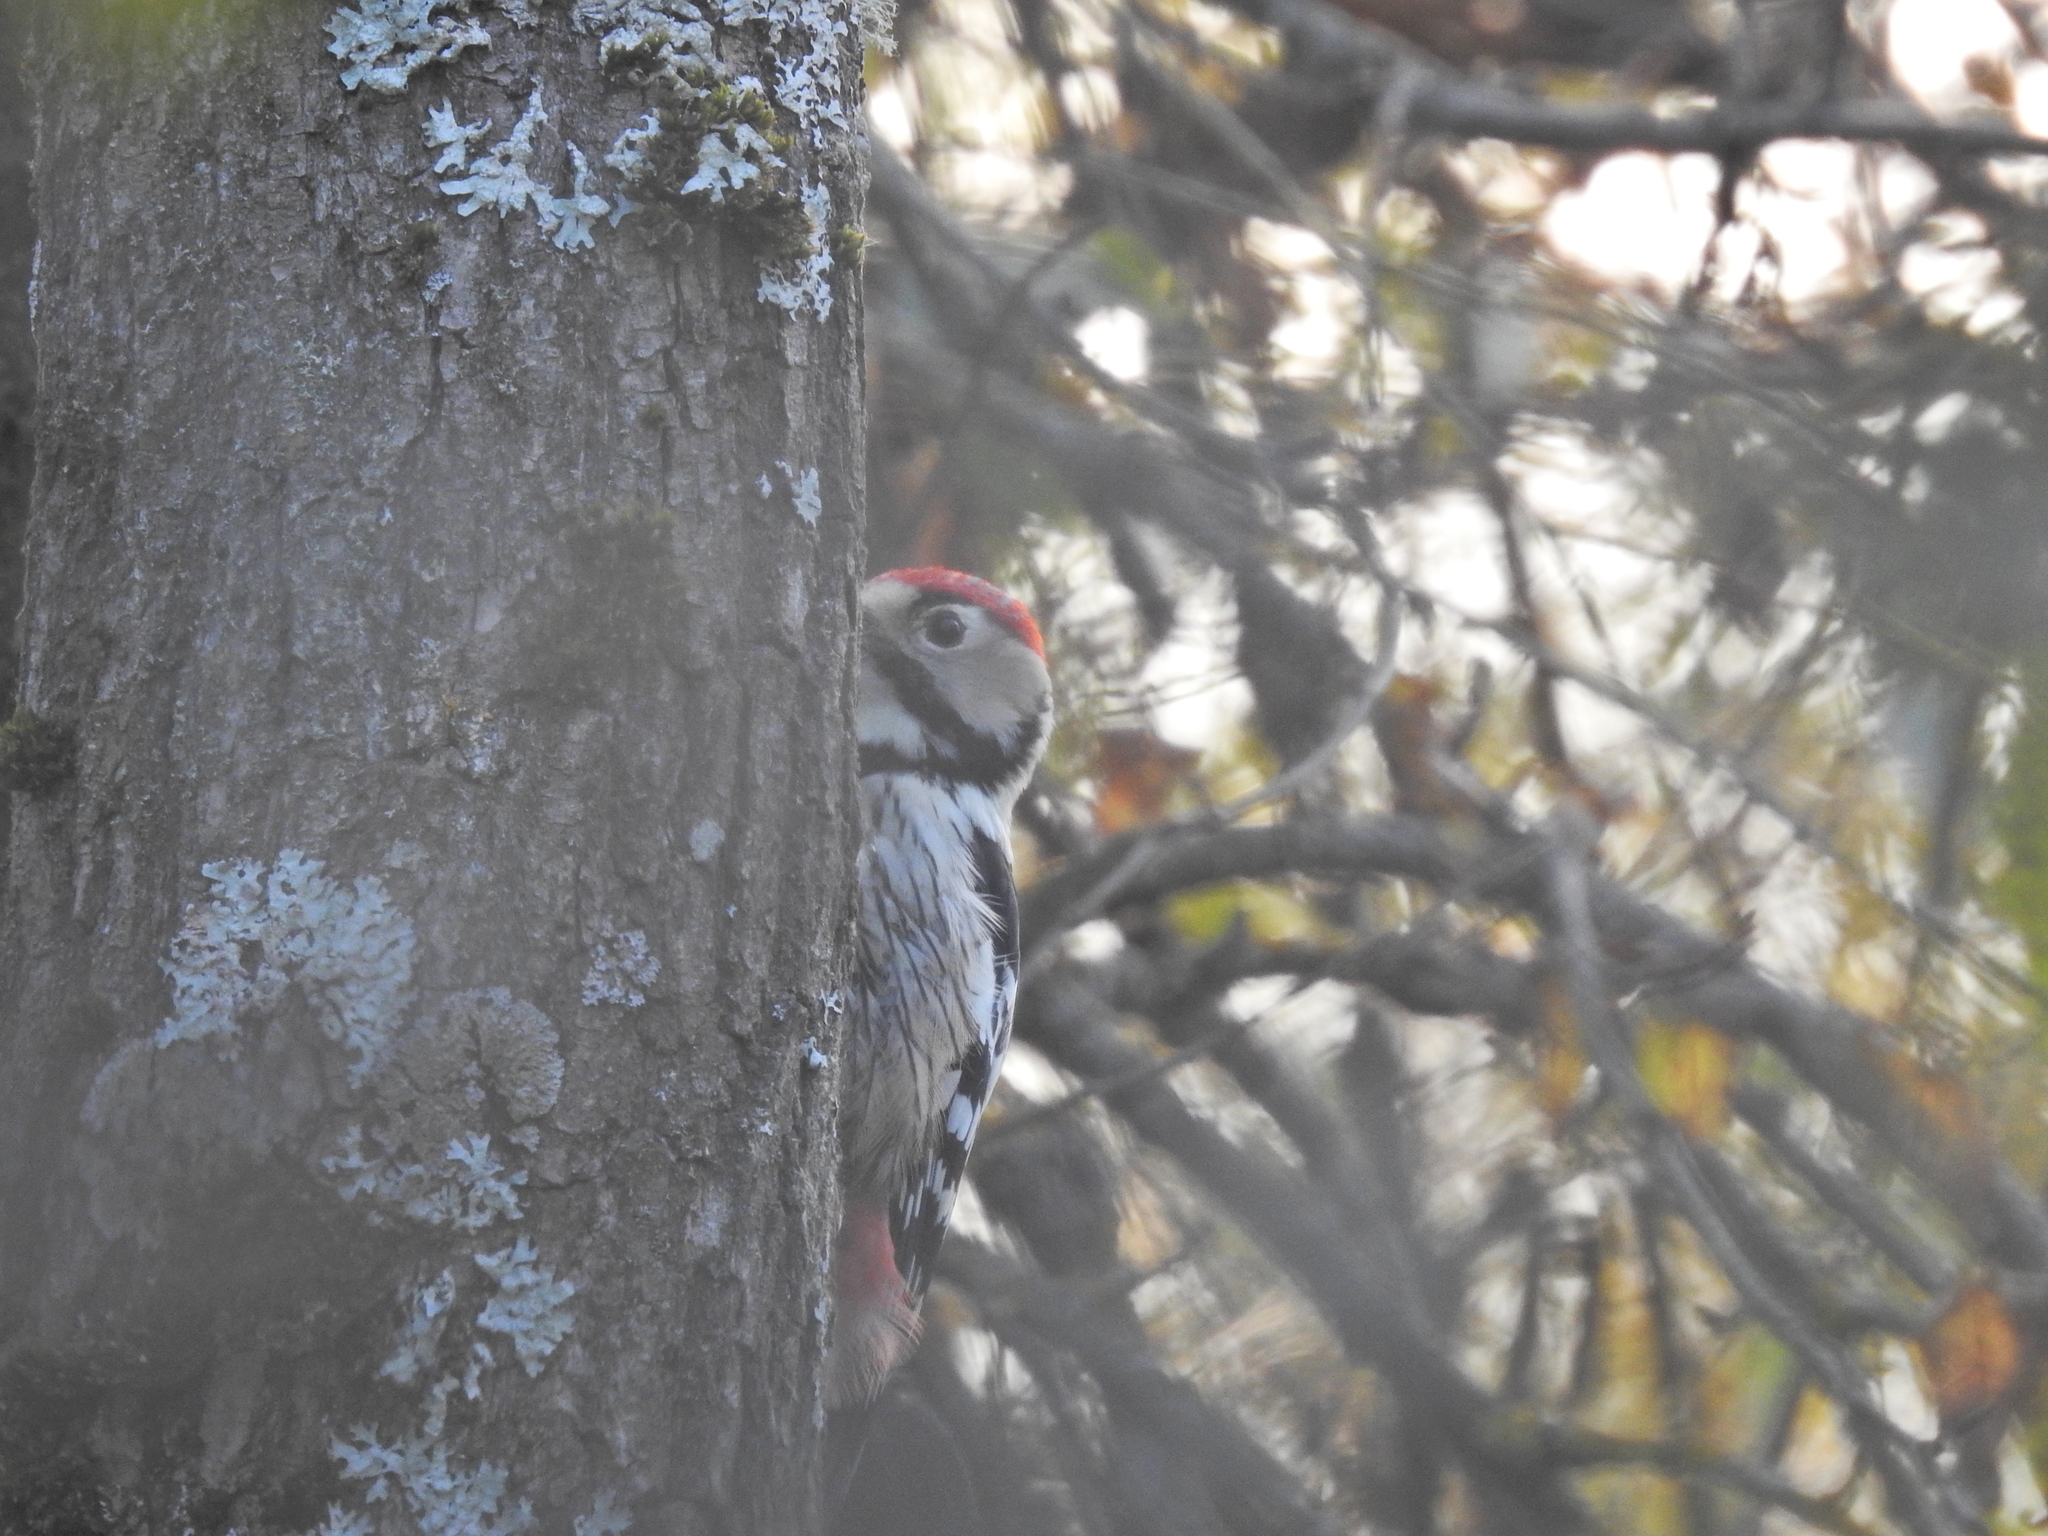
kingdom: Animalia
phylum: Chordata
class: Aves
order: Piciformes
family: Picidae
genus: Dendrocopos
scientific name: Dendrocopos leucotos
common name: White-backed woodpecker
